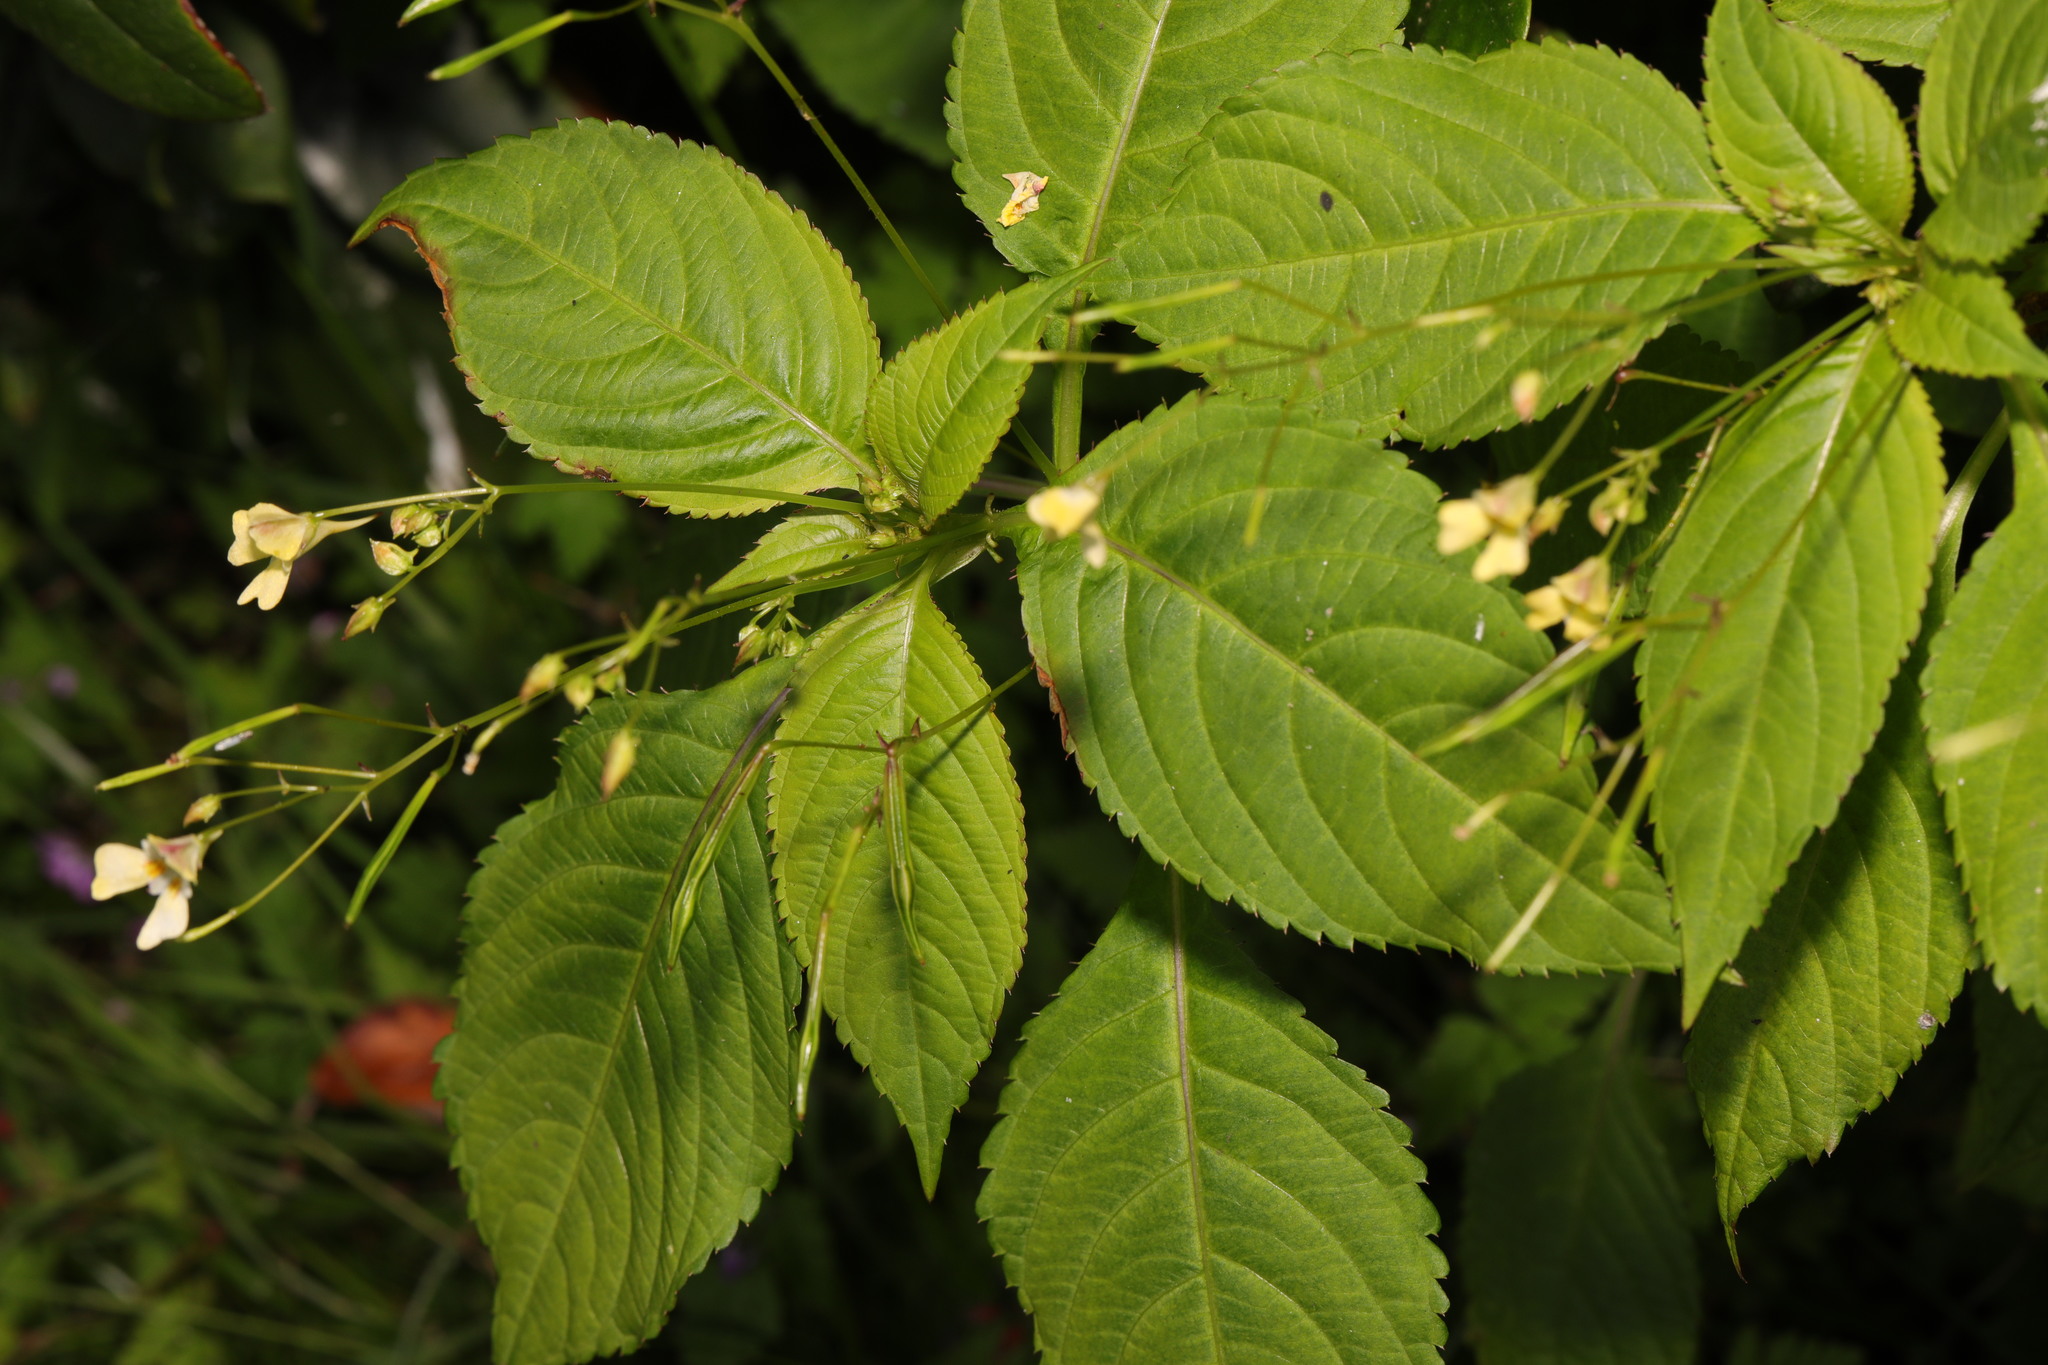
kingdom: Plantae
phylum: Tracheophyta
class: Magnoliopsida
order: Ericales
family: Balsaminaceae
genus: Impatiens
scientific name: Impatiens parviflora
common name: Small balsam
